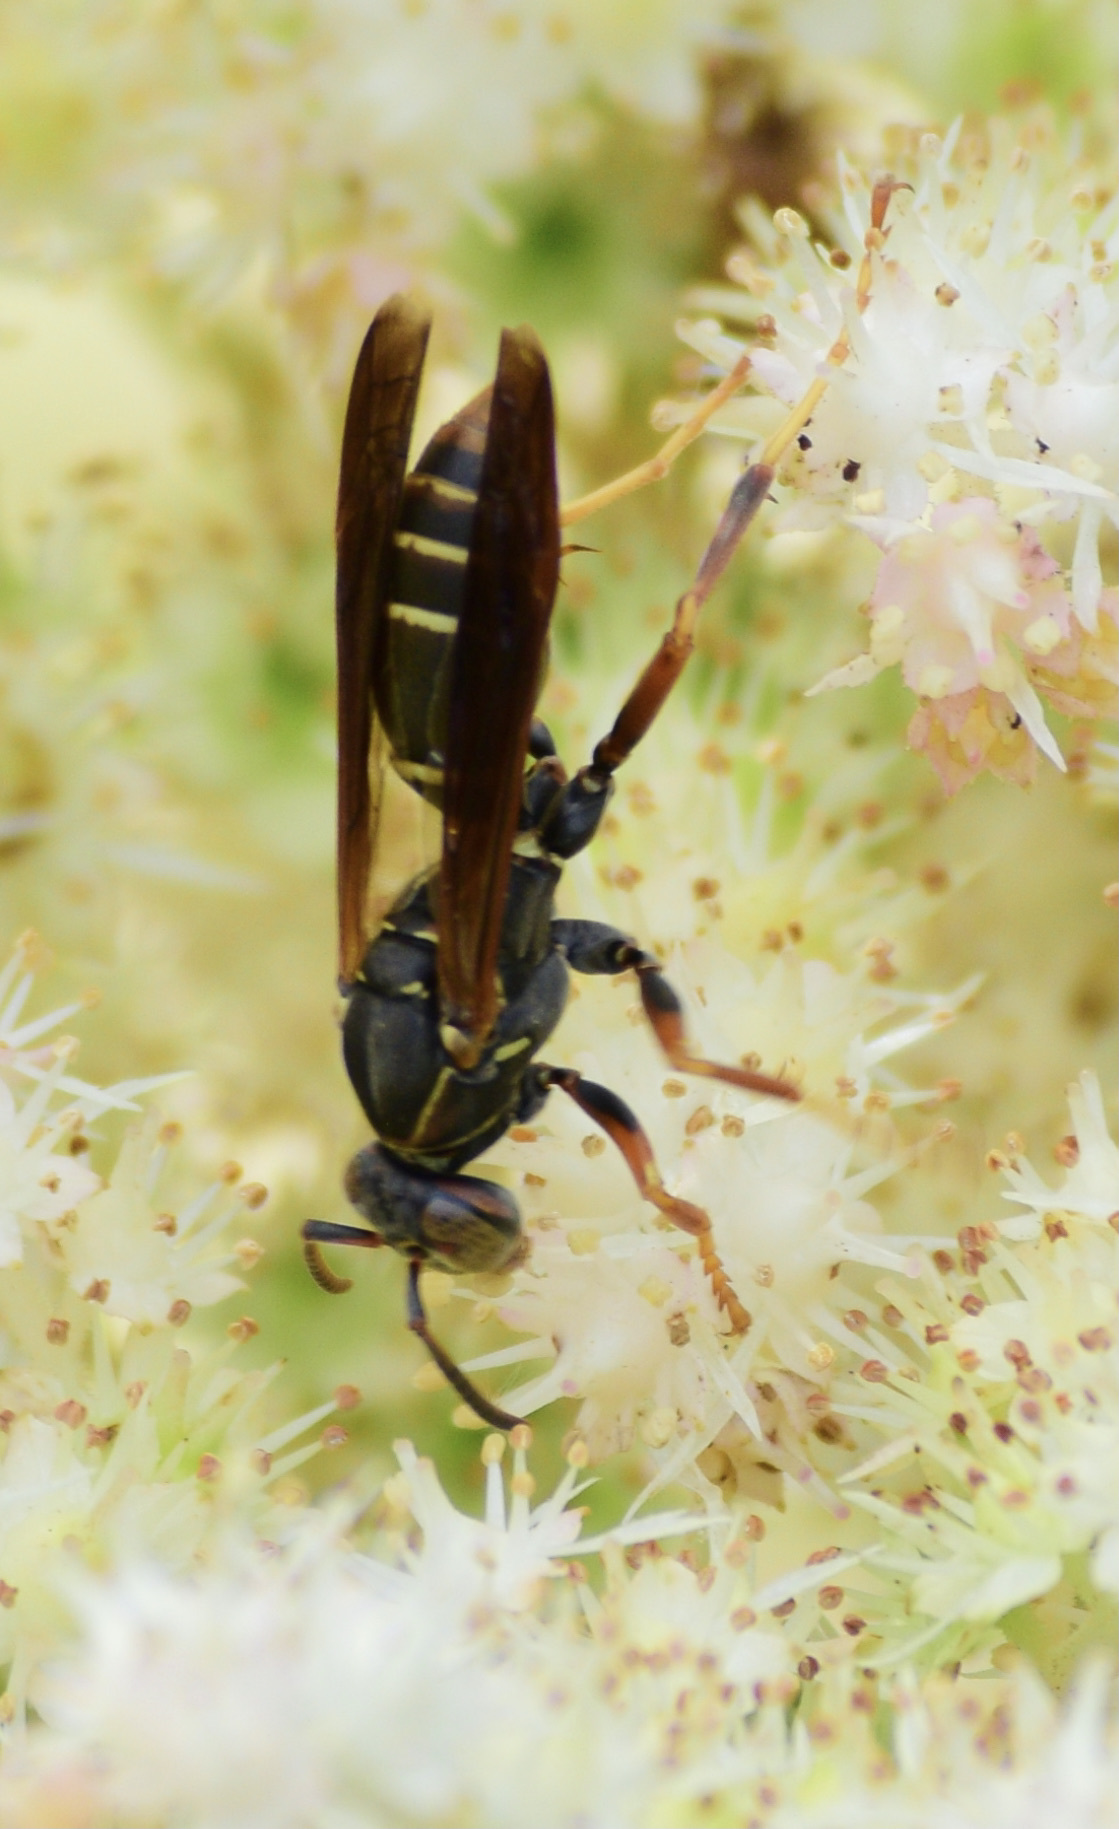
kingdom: Animalia
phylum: Arthropoda
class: Insecta
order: Hymenoptera
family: Eumenidae
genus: Polistes
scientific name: Polistes fuscatus
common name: Dark paper wasp
